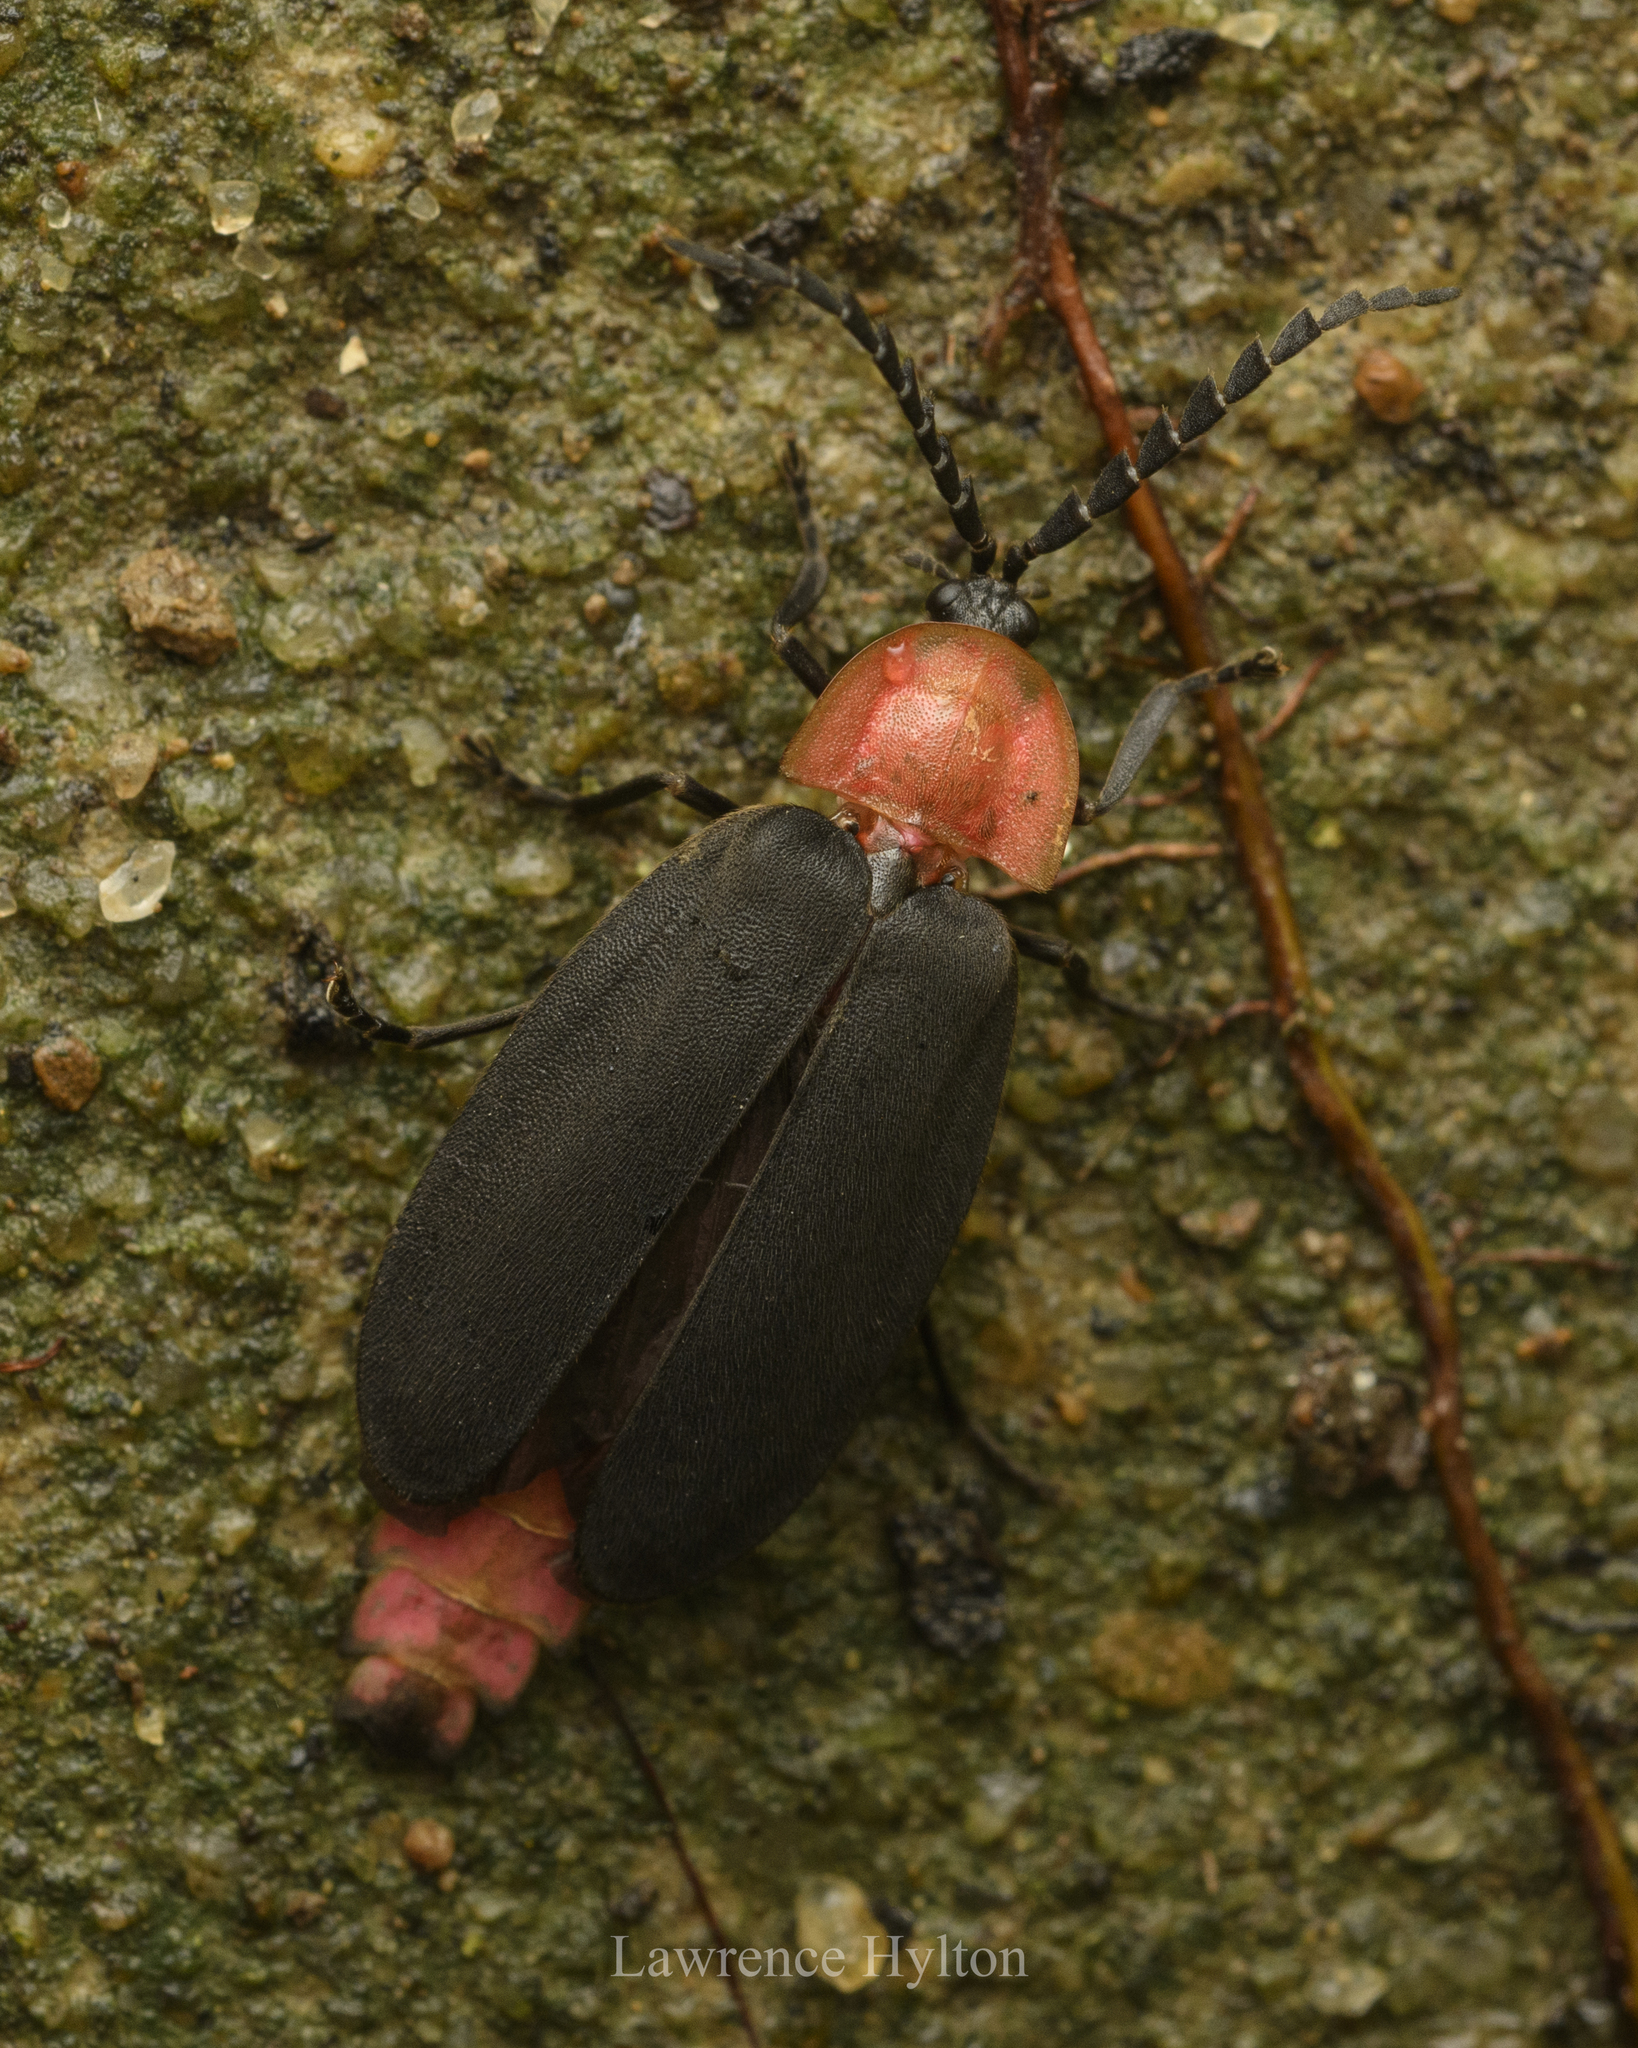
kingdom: Animalia
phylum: Arthropoda
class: Insecta
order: Coleoptera
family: Lampyridae
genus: Pyrocoelia
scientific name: Pyrocoelia sanguiniventer
